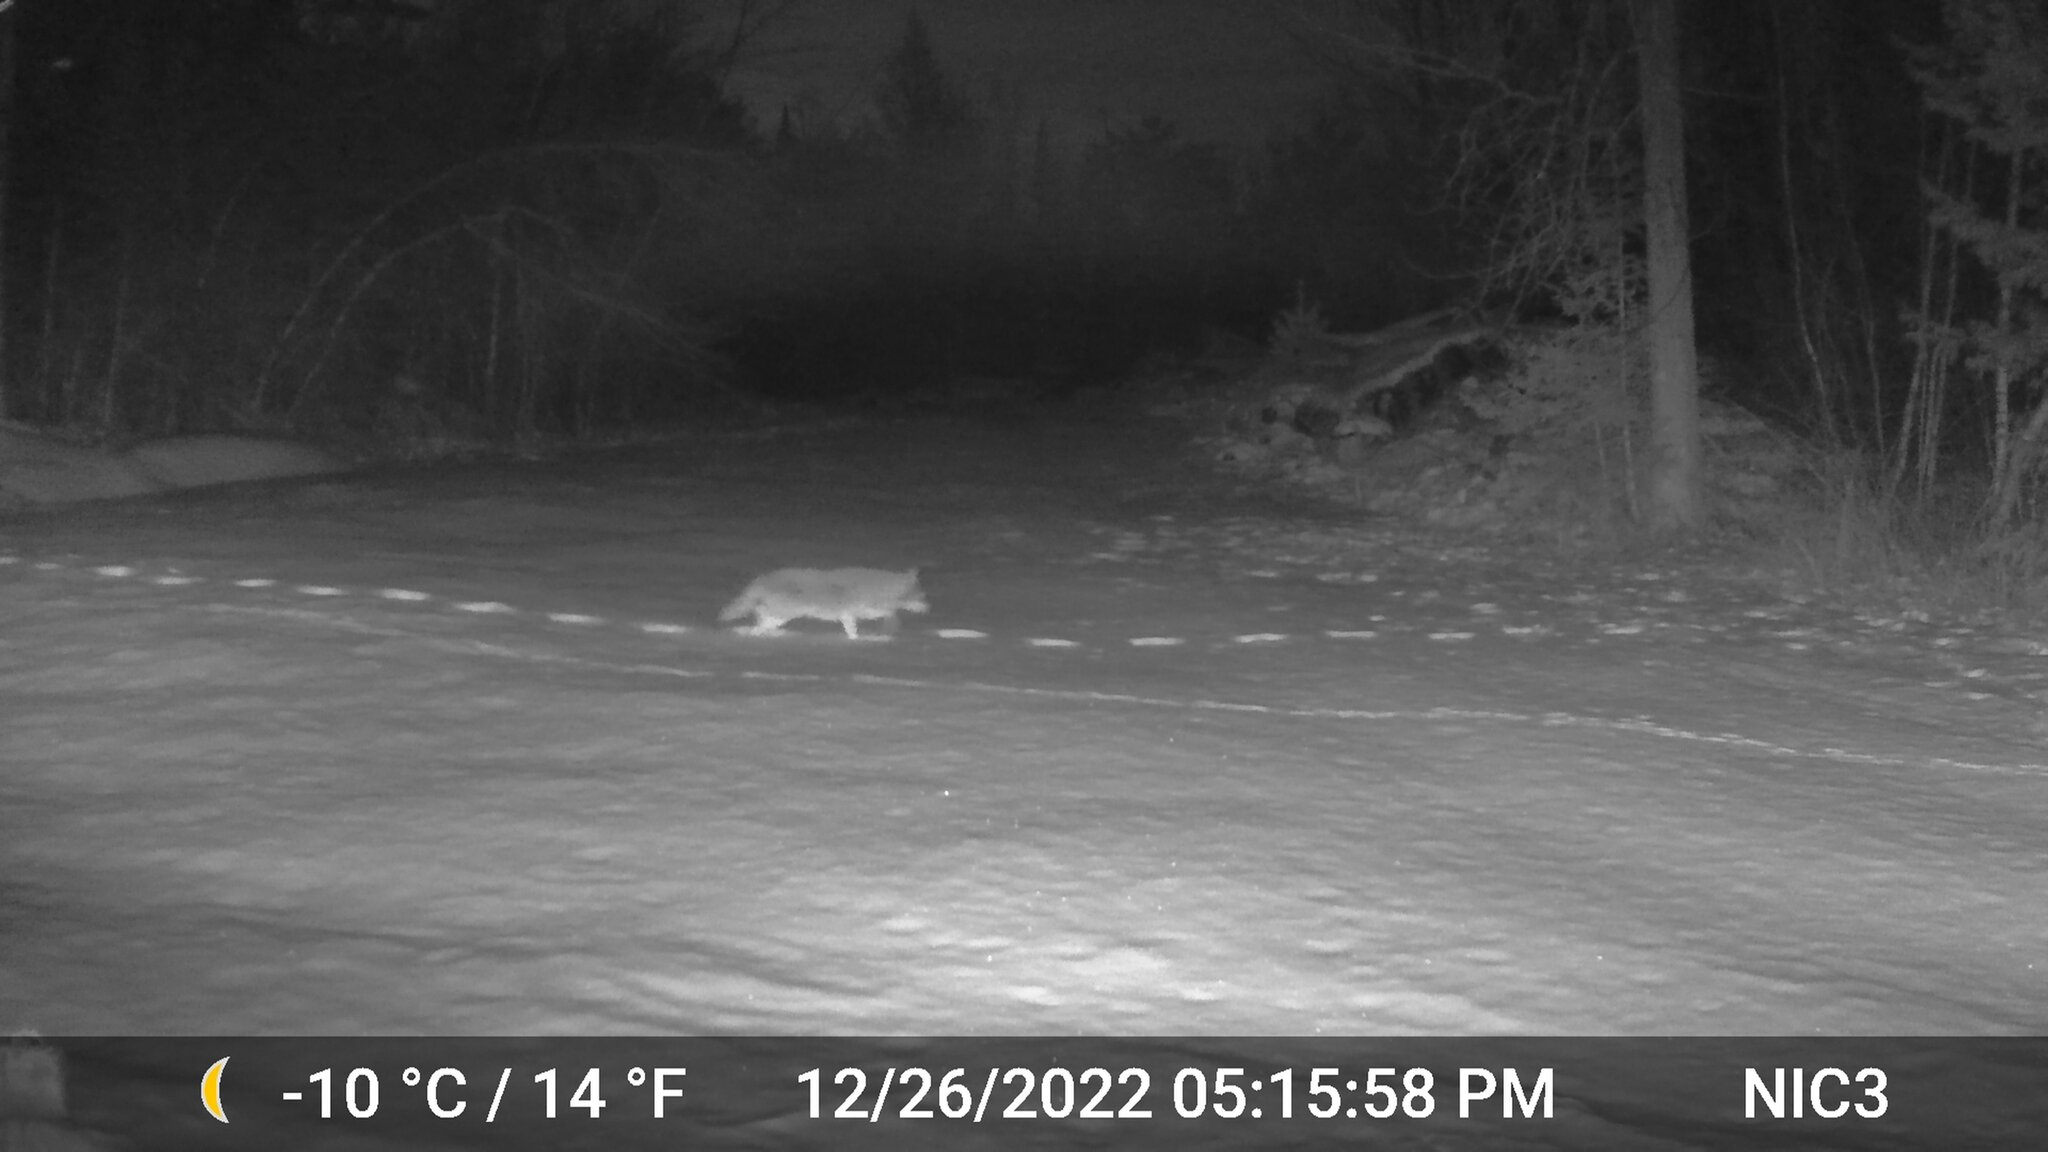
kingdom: Animalia
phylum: Chordata
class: Mammalia
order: Carnivora
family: Canidae
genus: Canis
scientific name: Canis latrans
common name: Coyote
